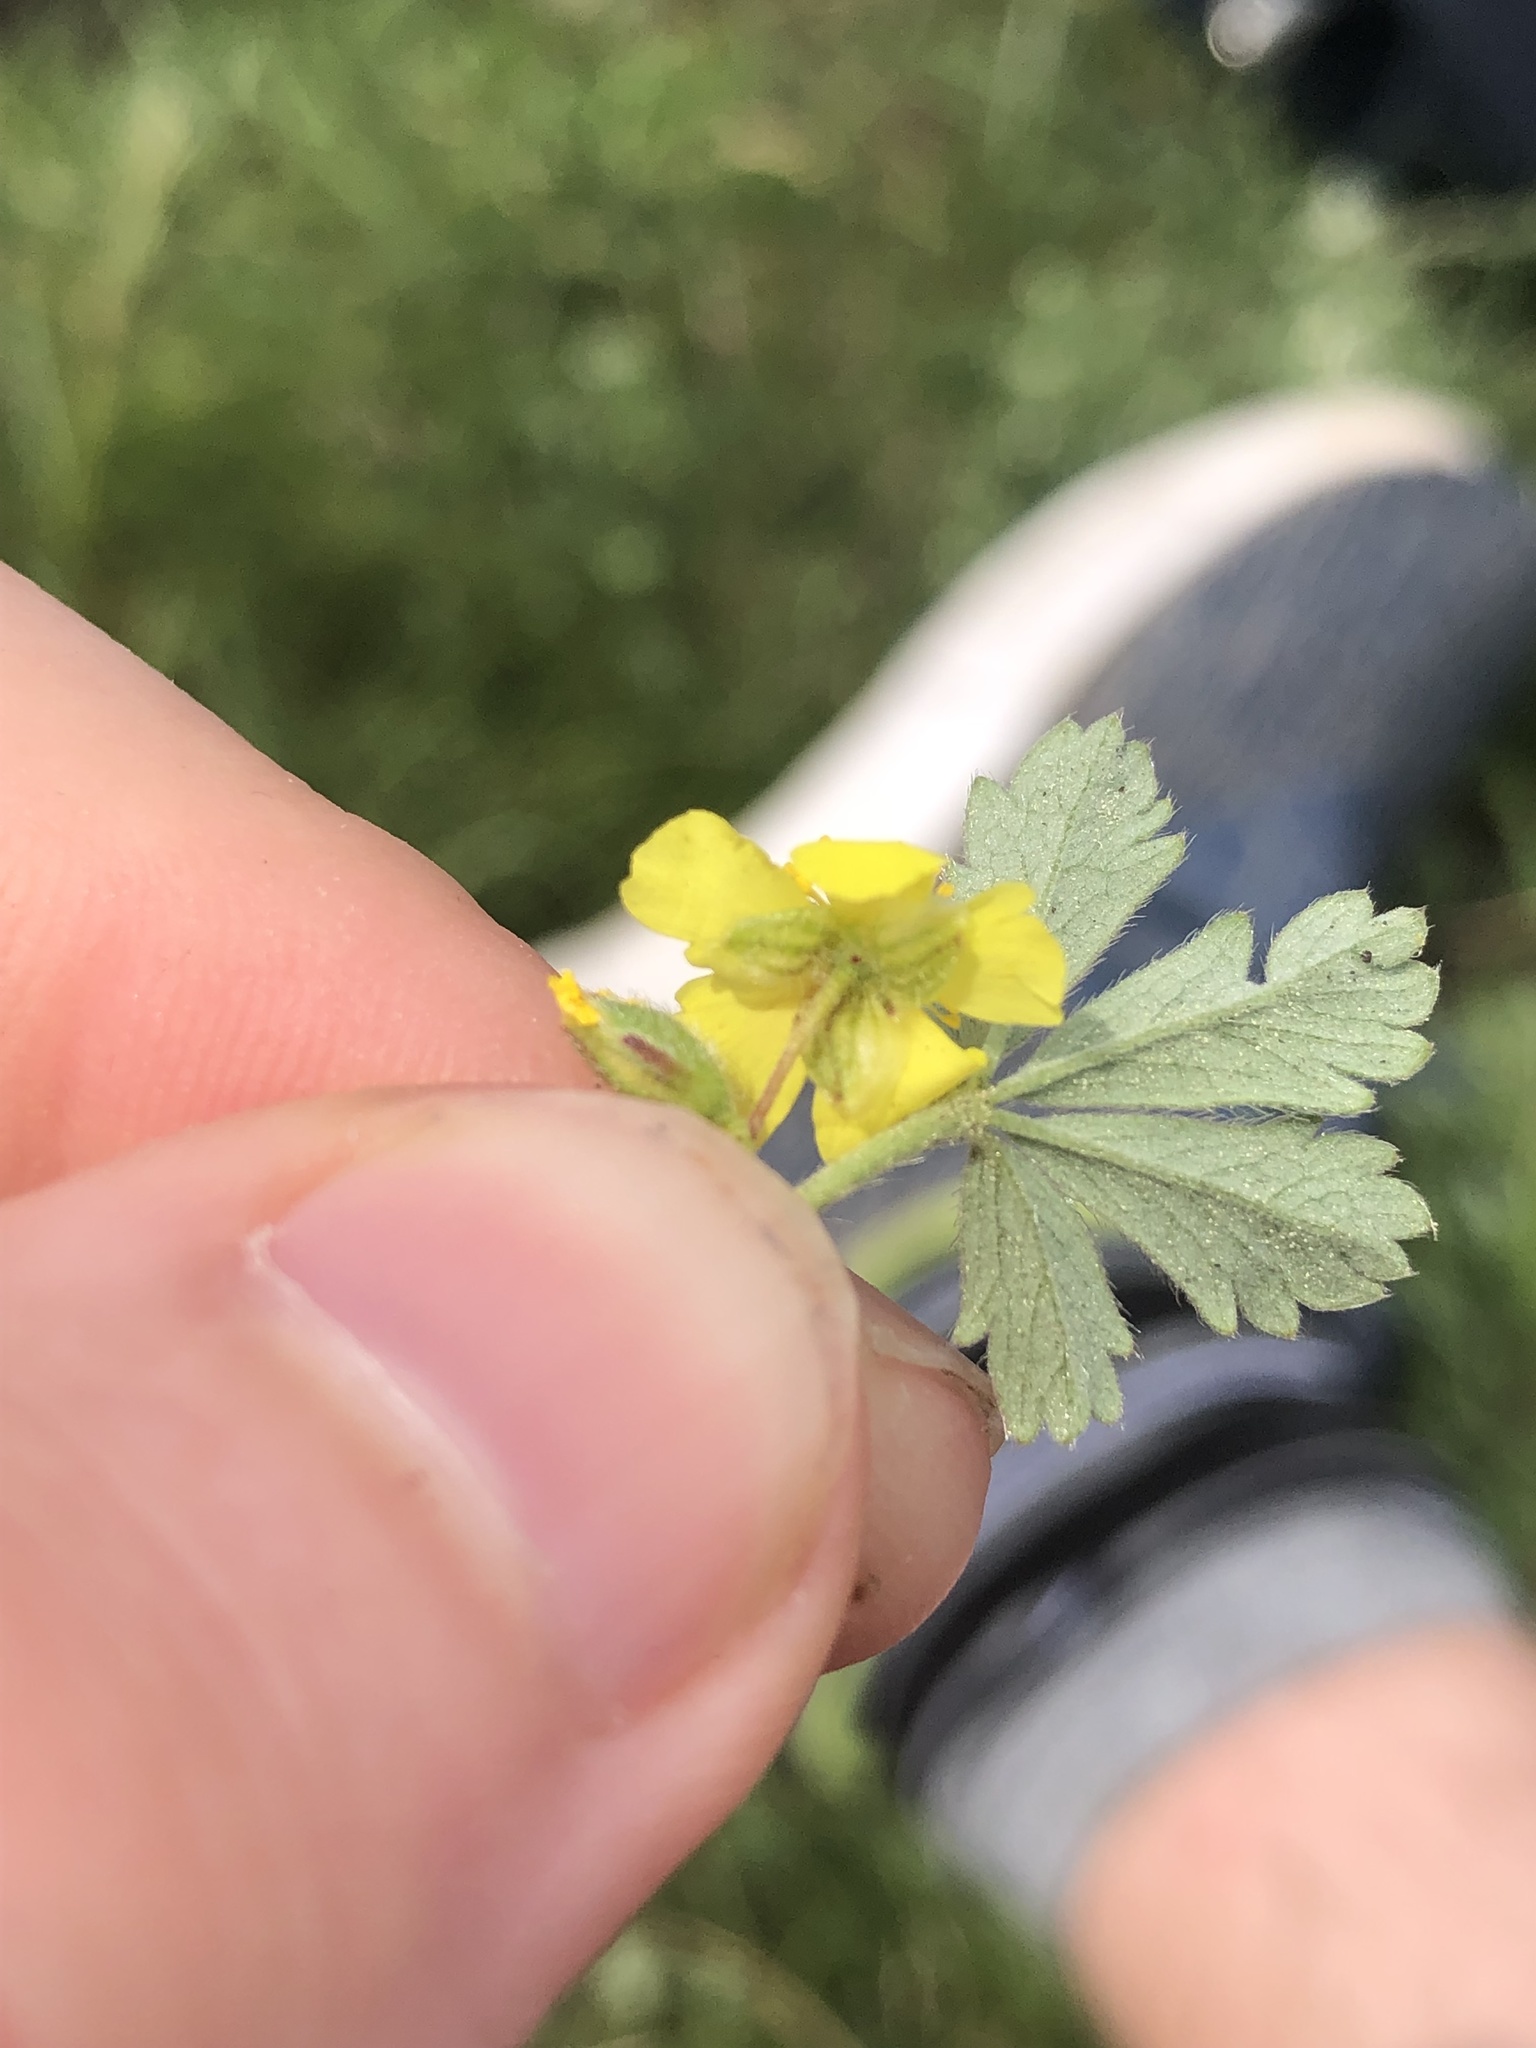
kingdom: Plantae
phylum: Tracheophyta
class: Magnoliopsida
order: Rosales
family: Rosaceae
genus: Potentilla
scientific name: Potentilla incana
